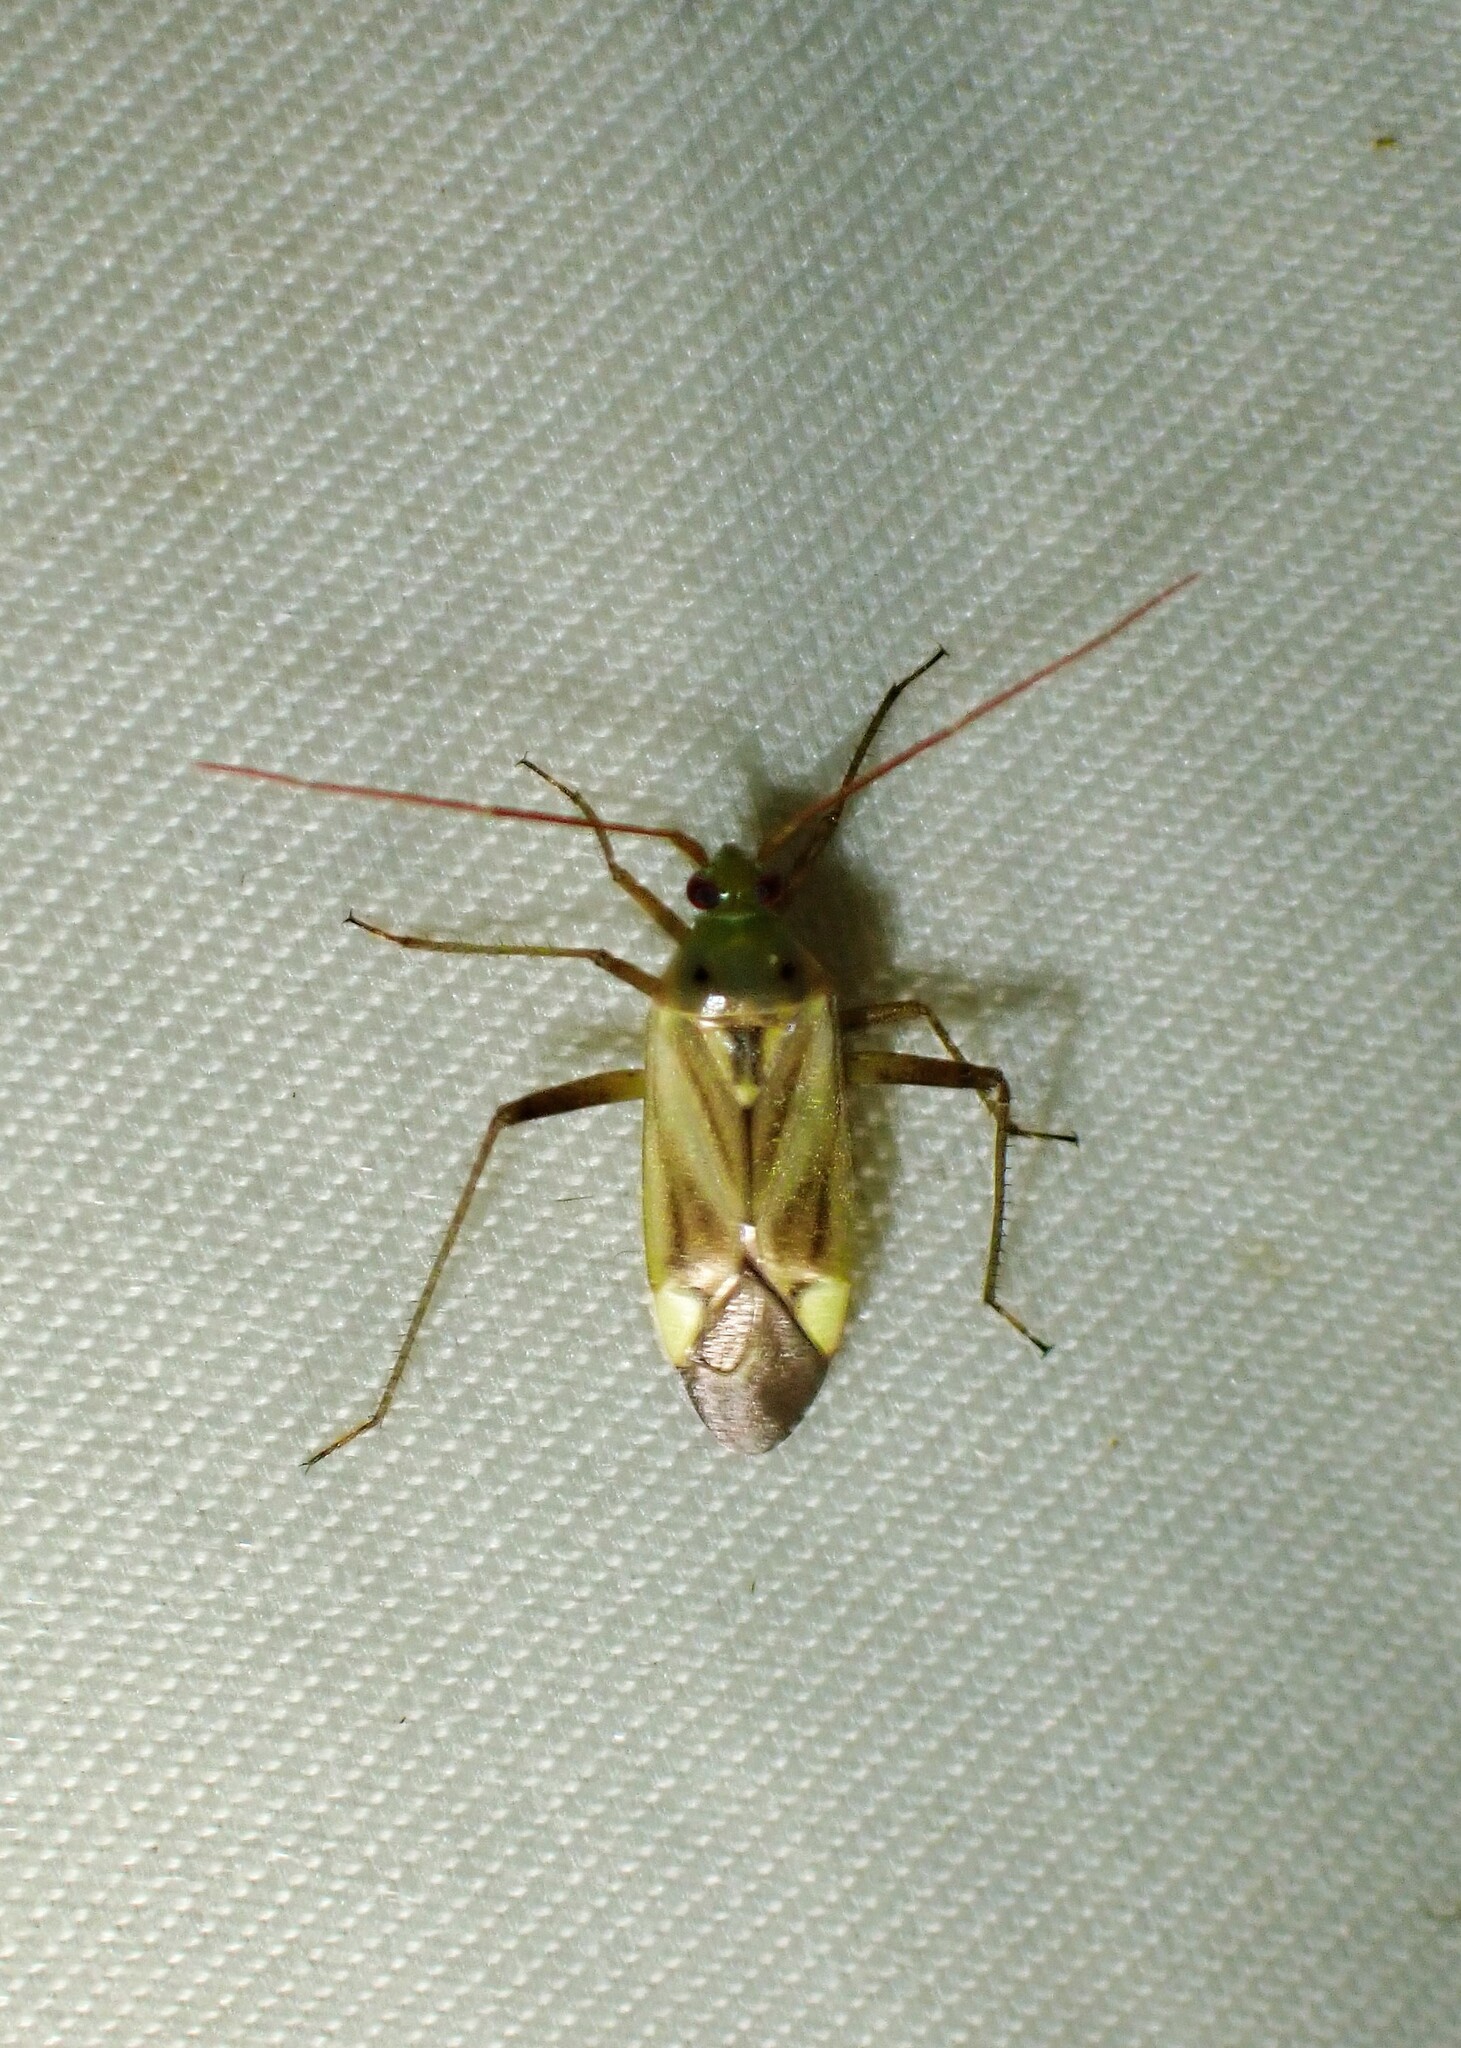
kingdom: Animalia
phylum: Arthropoda
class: Insecta
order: Hemiptera
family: Miridae
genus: Adelphocoris
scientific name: Adelphocoris lineolatus
